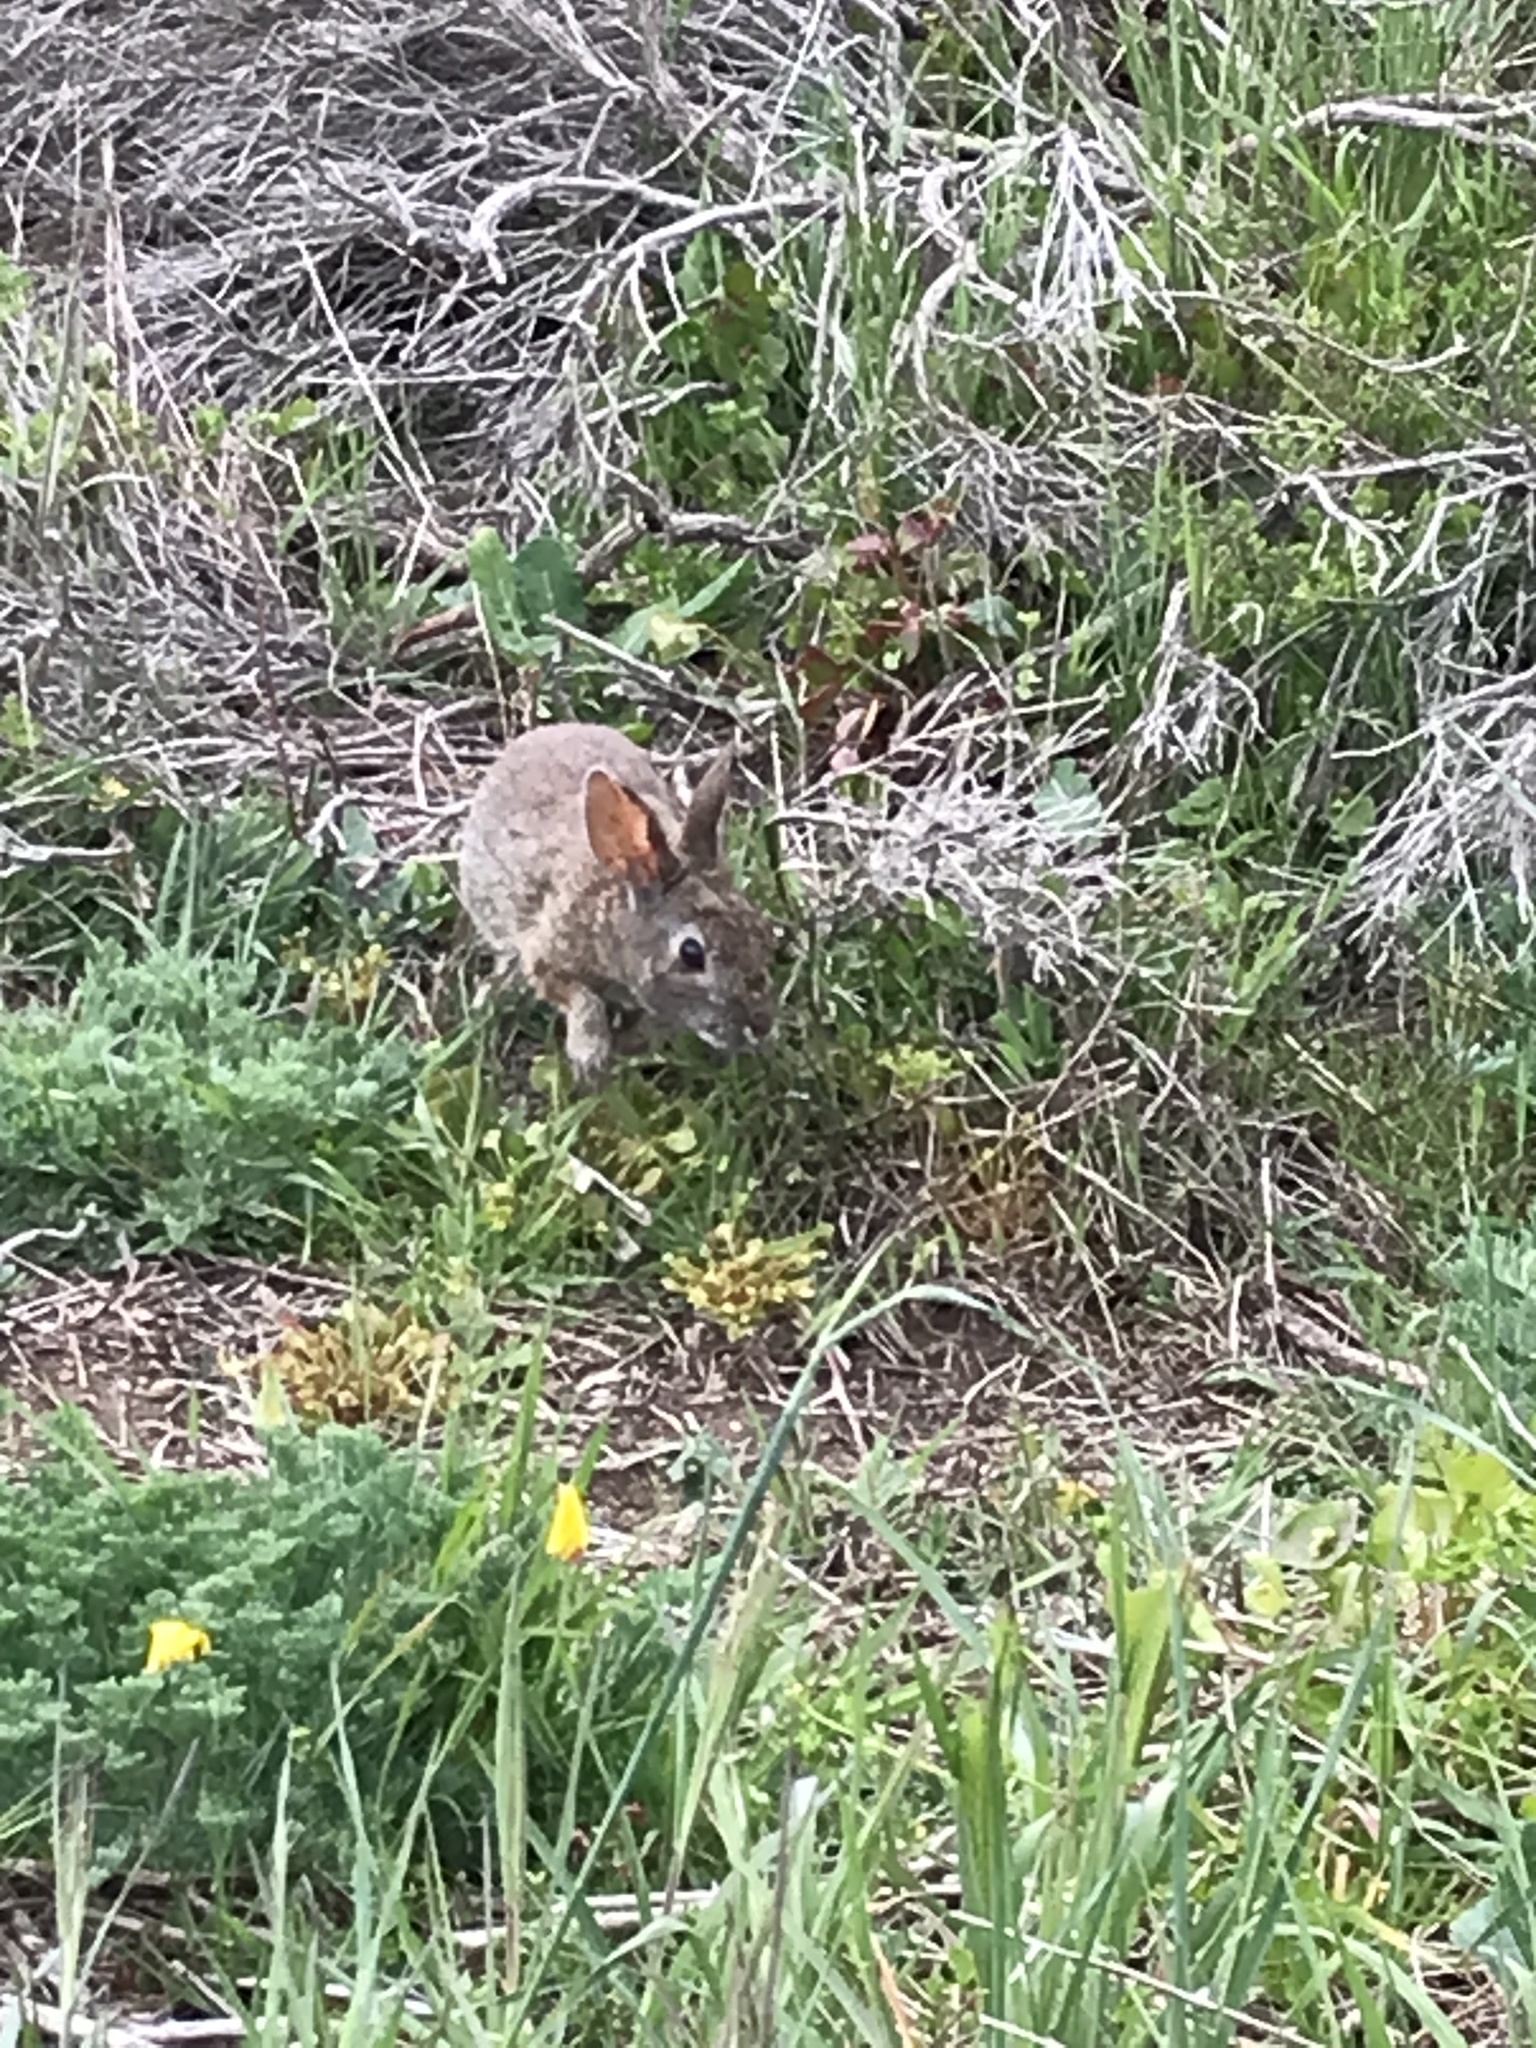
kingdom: Animalia
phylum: Chordata
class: Mammalia
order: Lagomorpha
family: Leporidae
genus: Sylvilagus
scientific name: Sylvilagus bachmani
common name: Brush rabbit
